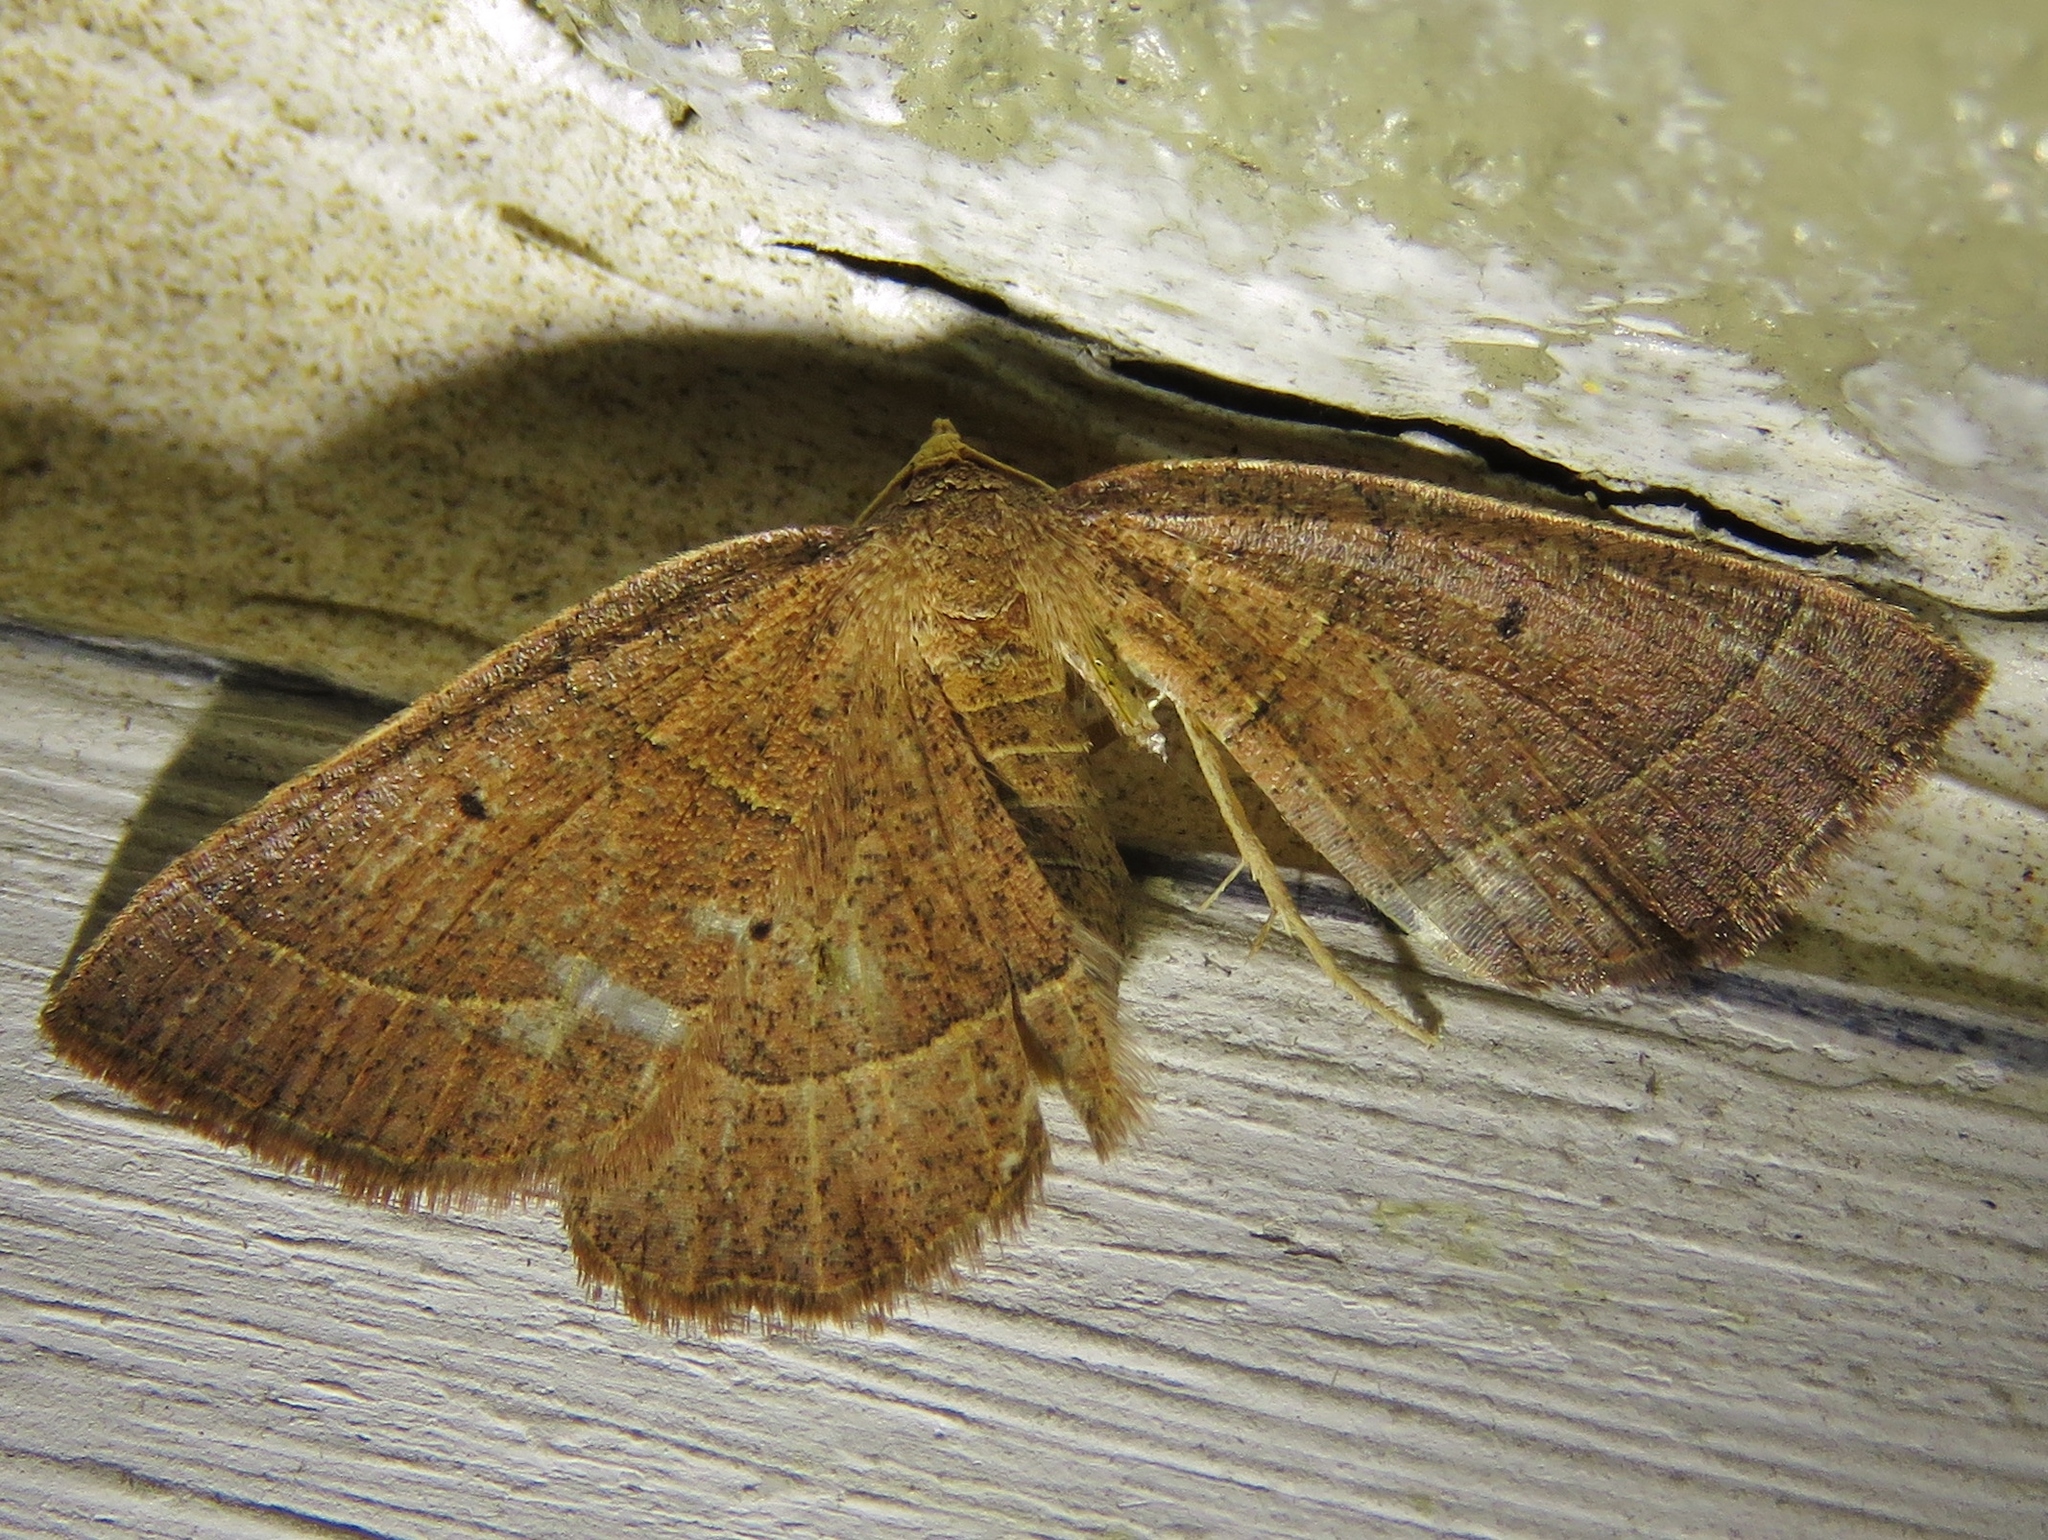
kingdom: Animalia
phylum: Arthropoda
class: Insecta
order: Lepidoptera
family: Geometridae
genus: Episemasia
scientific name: Episemasia cervinaria
